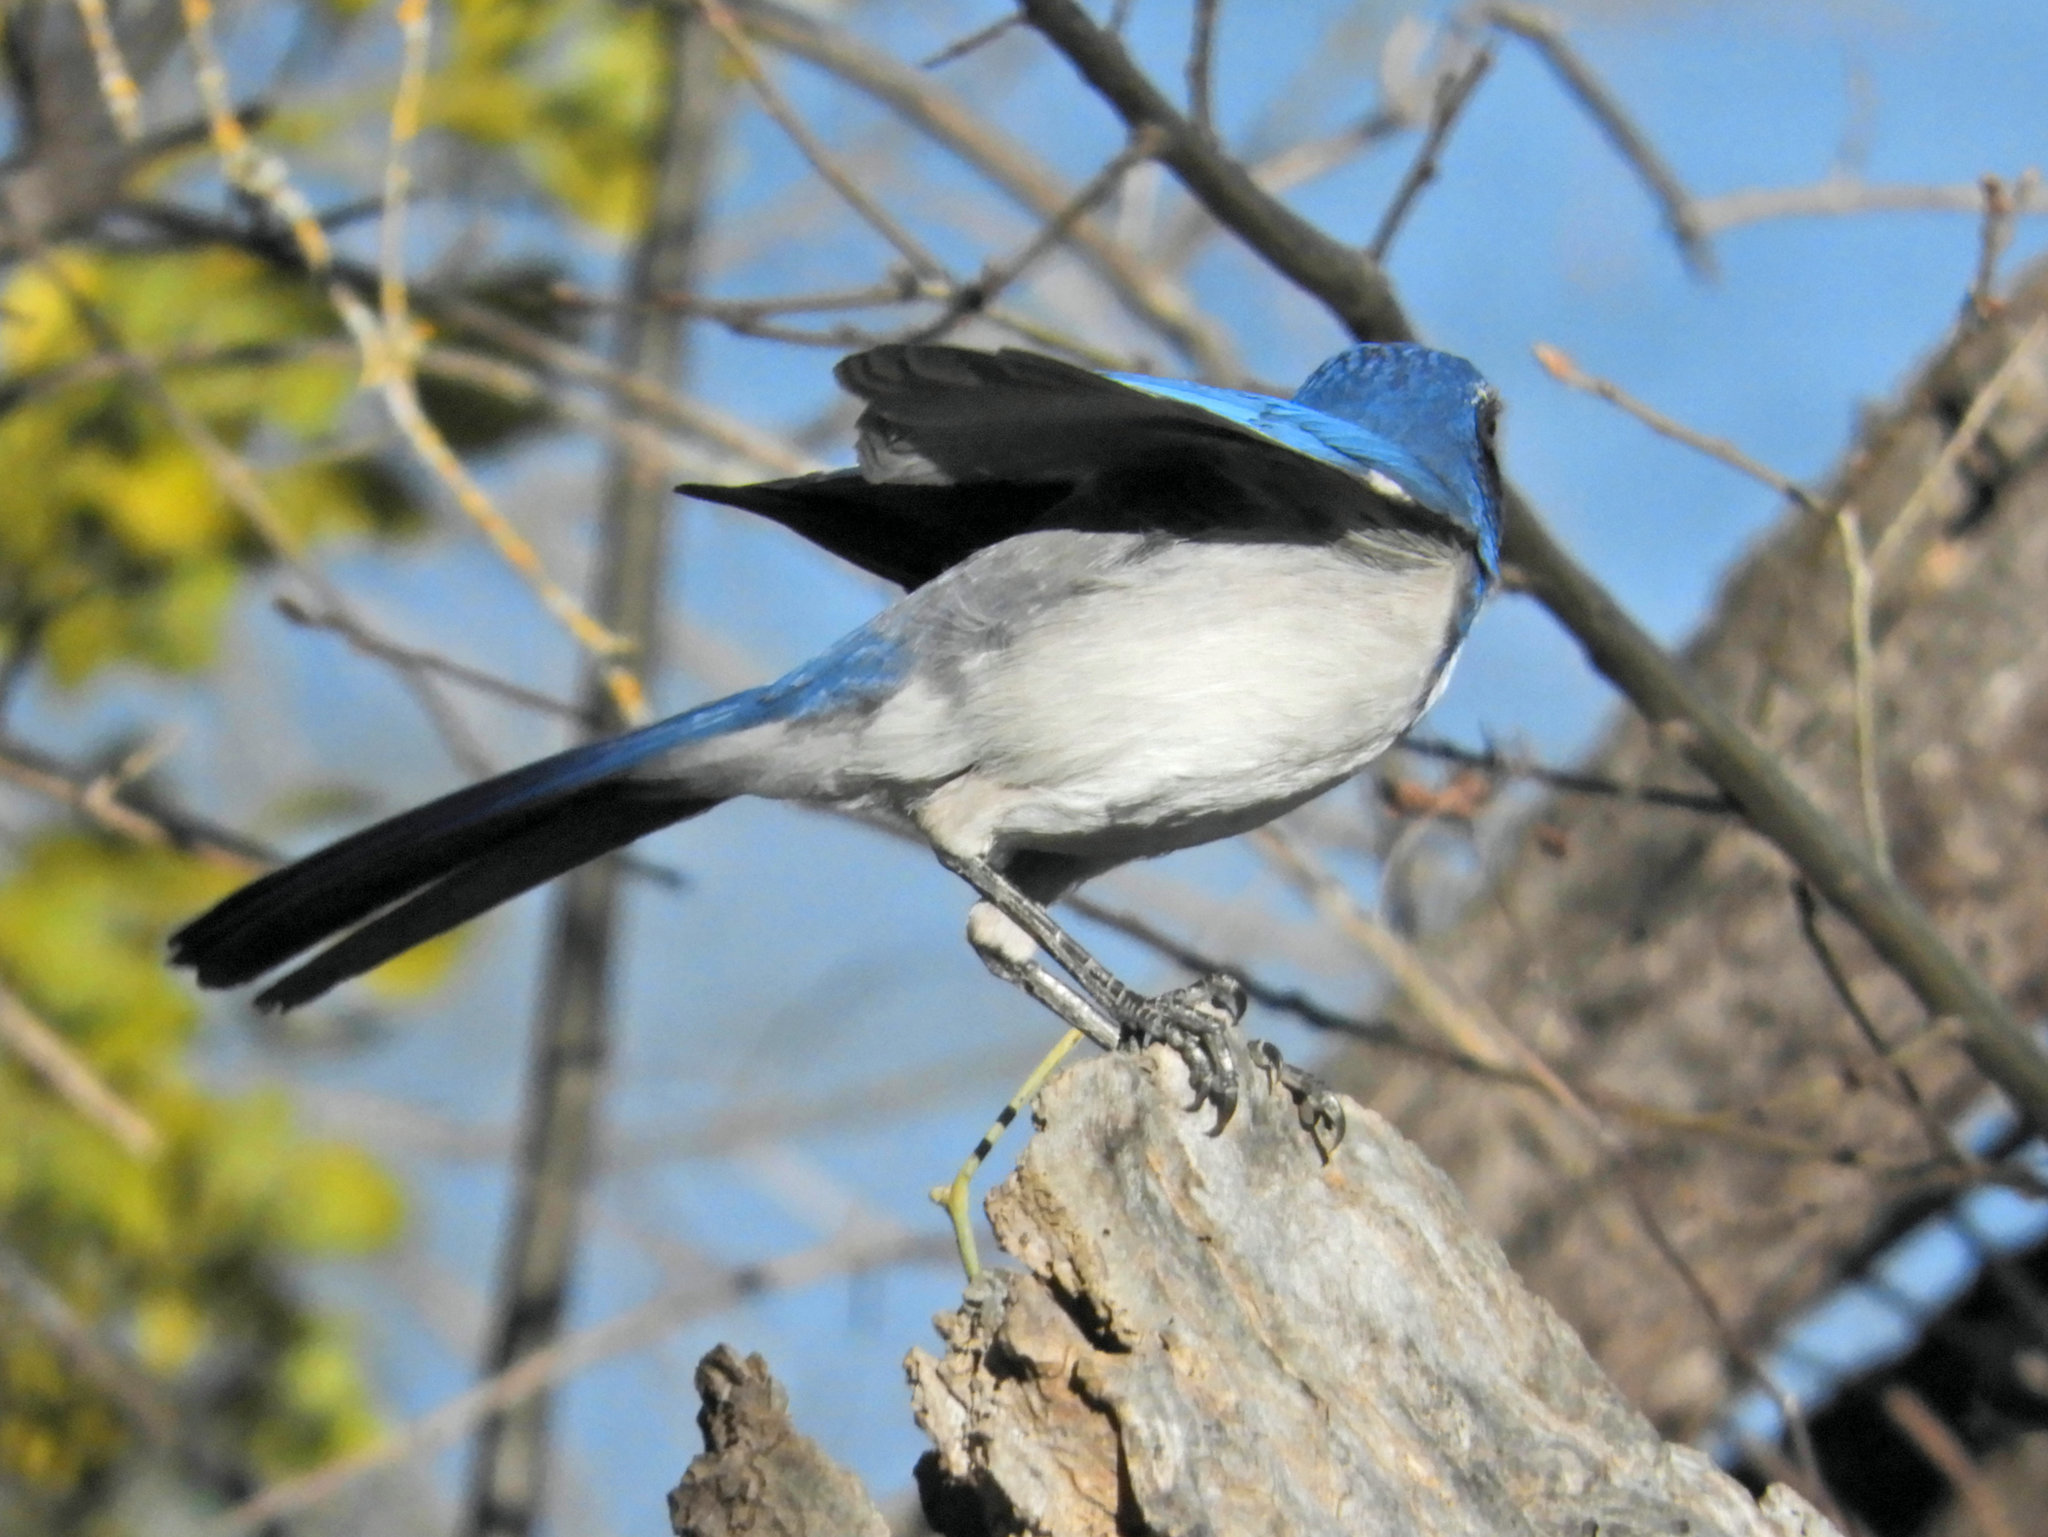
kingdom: Animalia
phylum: Chordata
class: Aves
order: Passeriformes
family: Corvidae
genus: Aphelocoma
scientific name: Aphelocoma californica
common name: California scrub-jay
